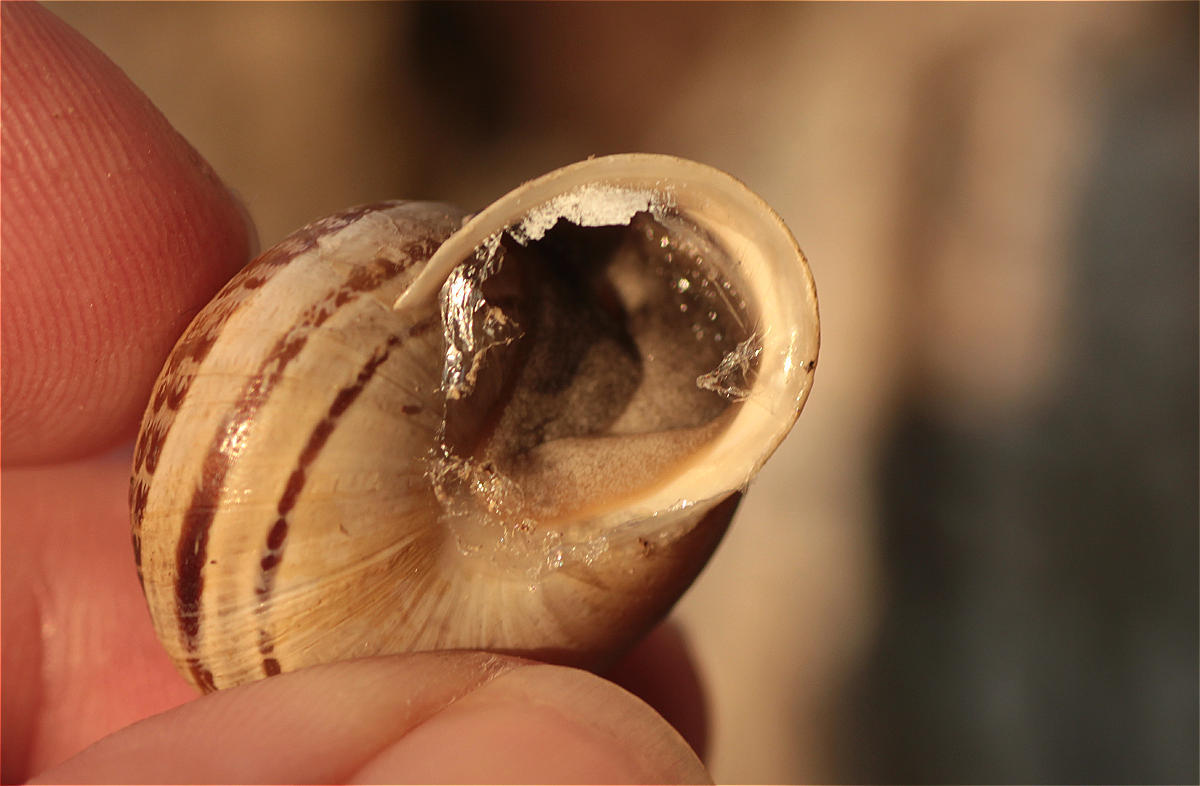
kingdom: Animalia
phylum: Mollusca
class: Gastropoda
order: Stylommatophora
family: Helicidae
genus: Eobania
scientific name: Eobania vermiculata
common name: Chocolateband snail
